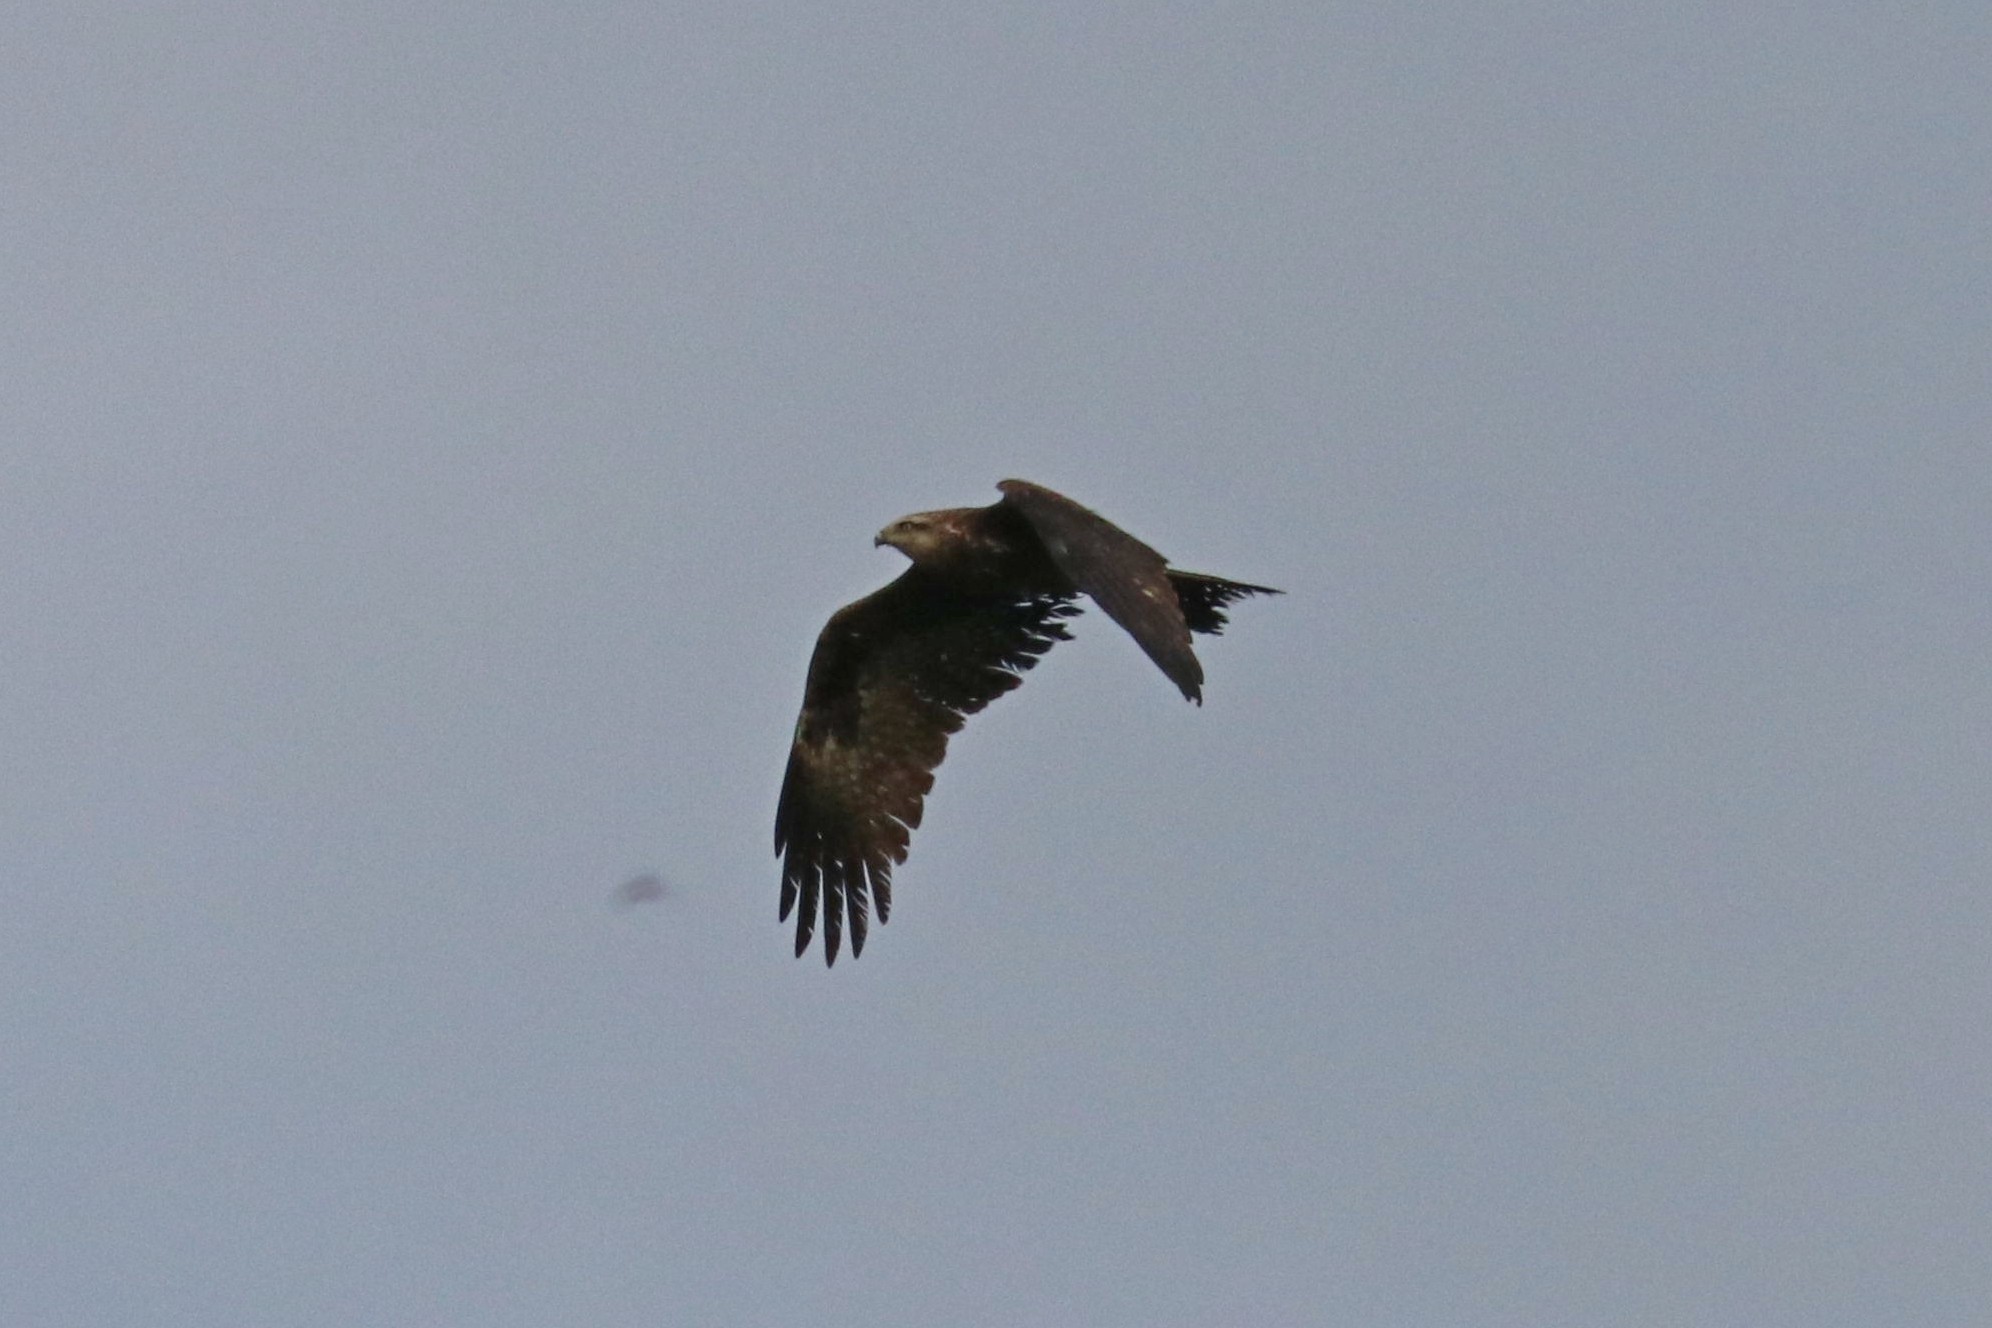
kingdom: Animalia
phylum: Chordata
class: Aves
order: Accipitriformes
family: Accipitridae
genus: Milvus
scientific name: Milvus migrans
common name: Black kite
